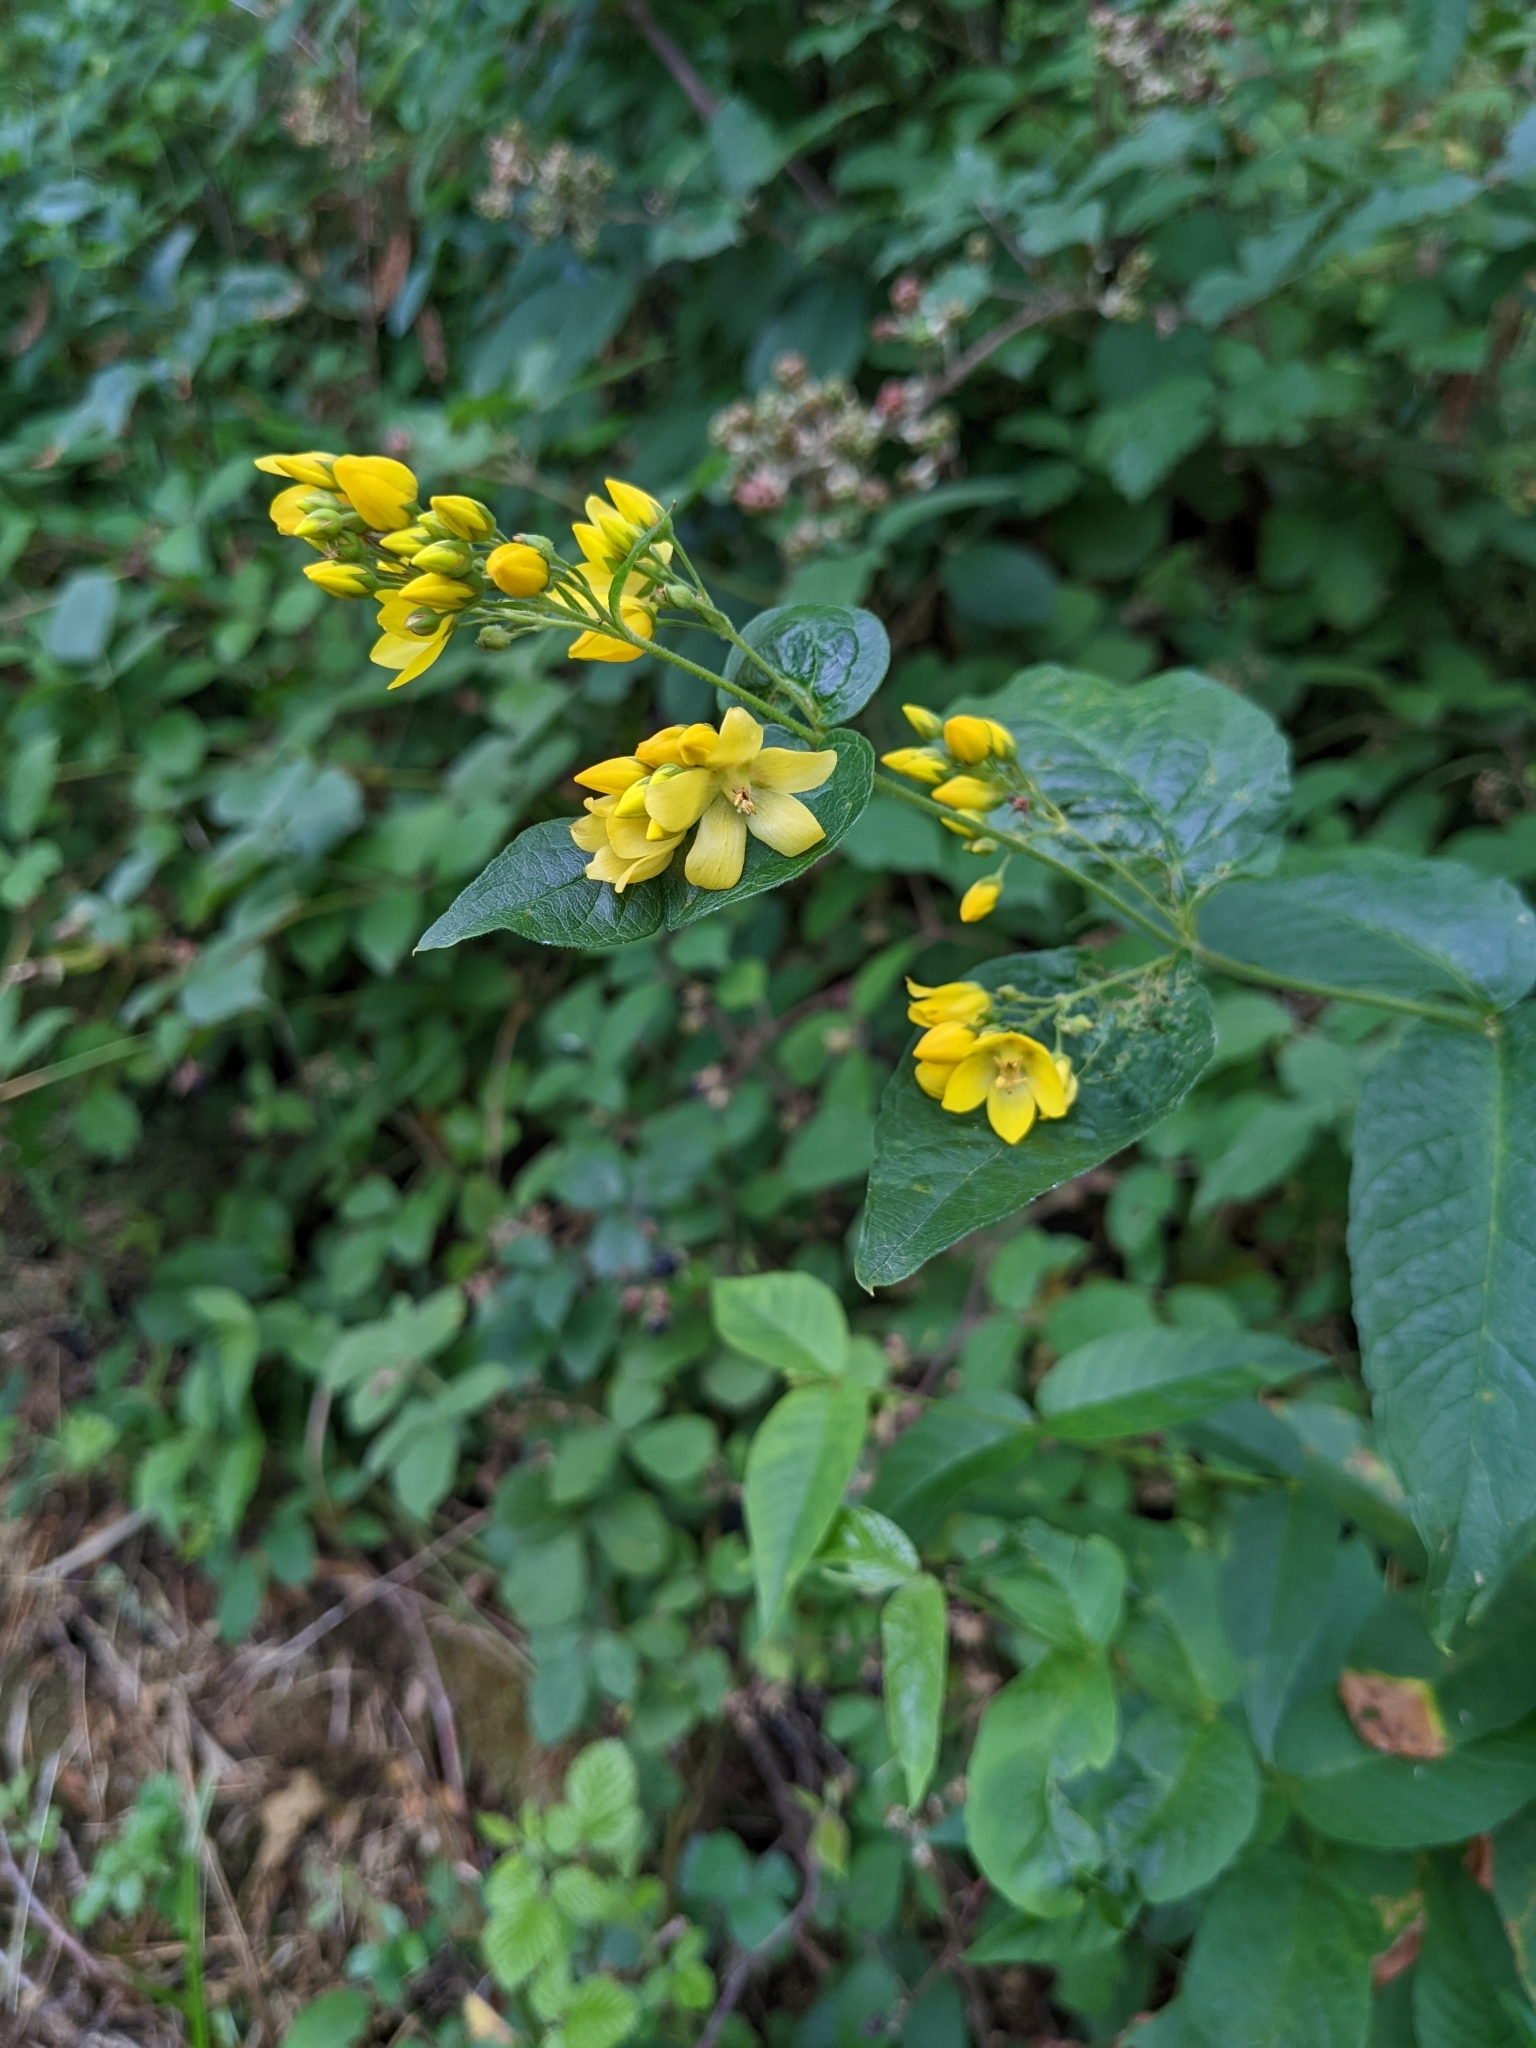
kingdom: Plantae
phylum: Tracheophyta
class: Magnoliopsida
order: Ericales
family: Primulaceae
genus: Lysimachia
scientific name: Lysimachia vulgaris
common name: Yellow loosestrife
